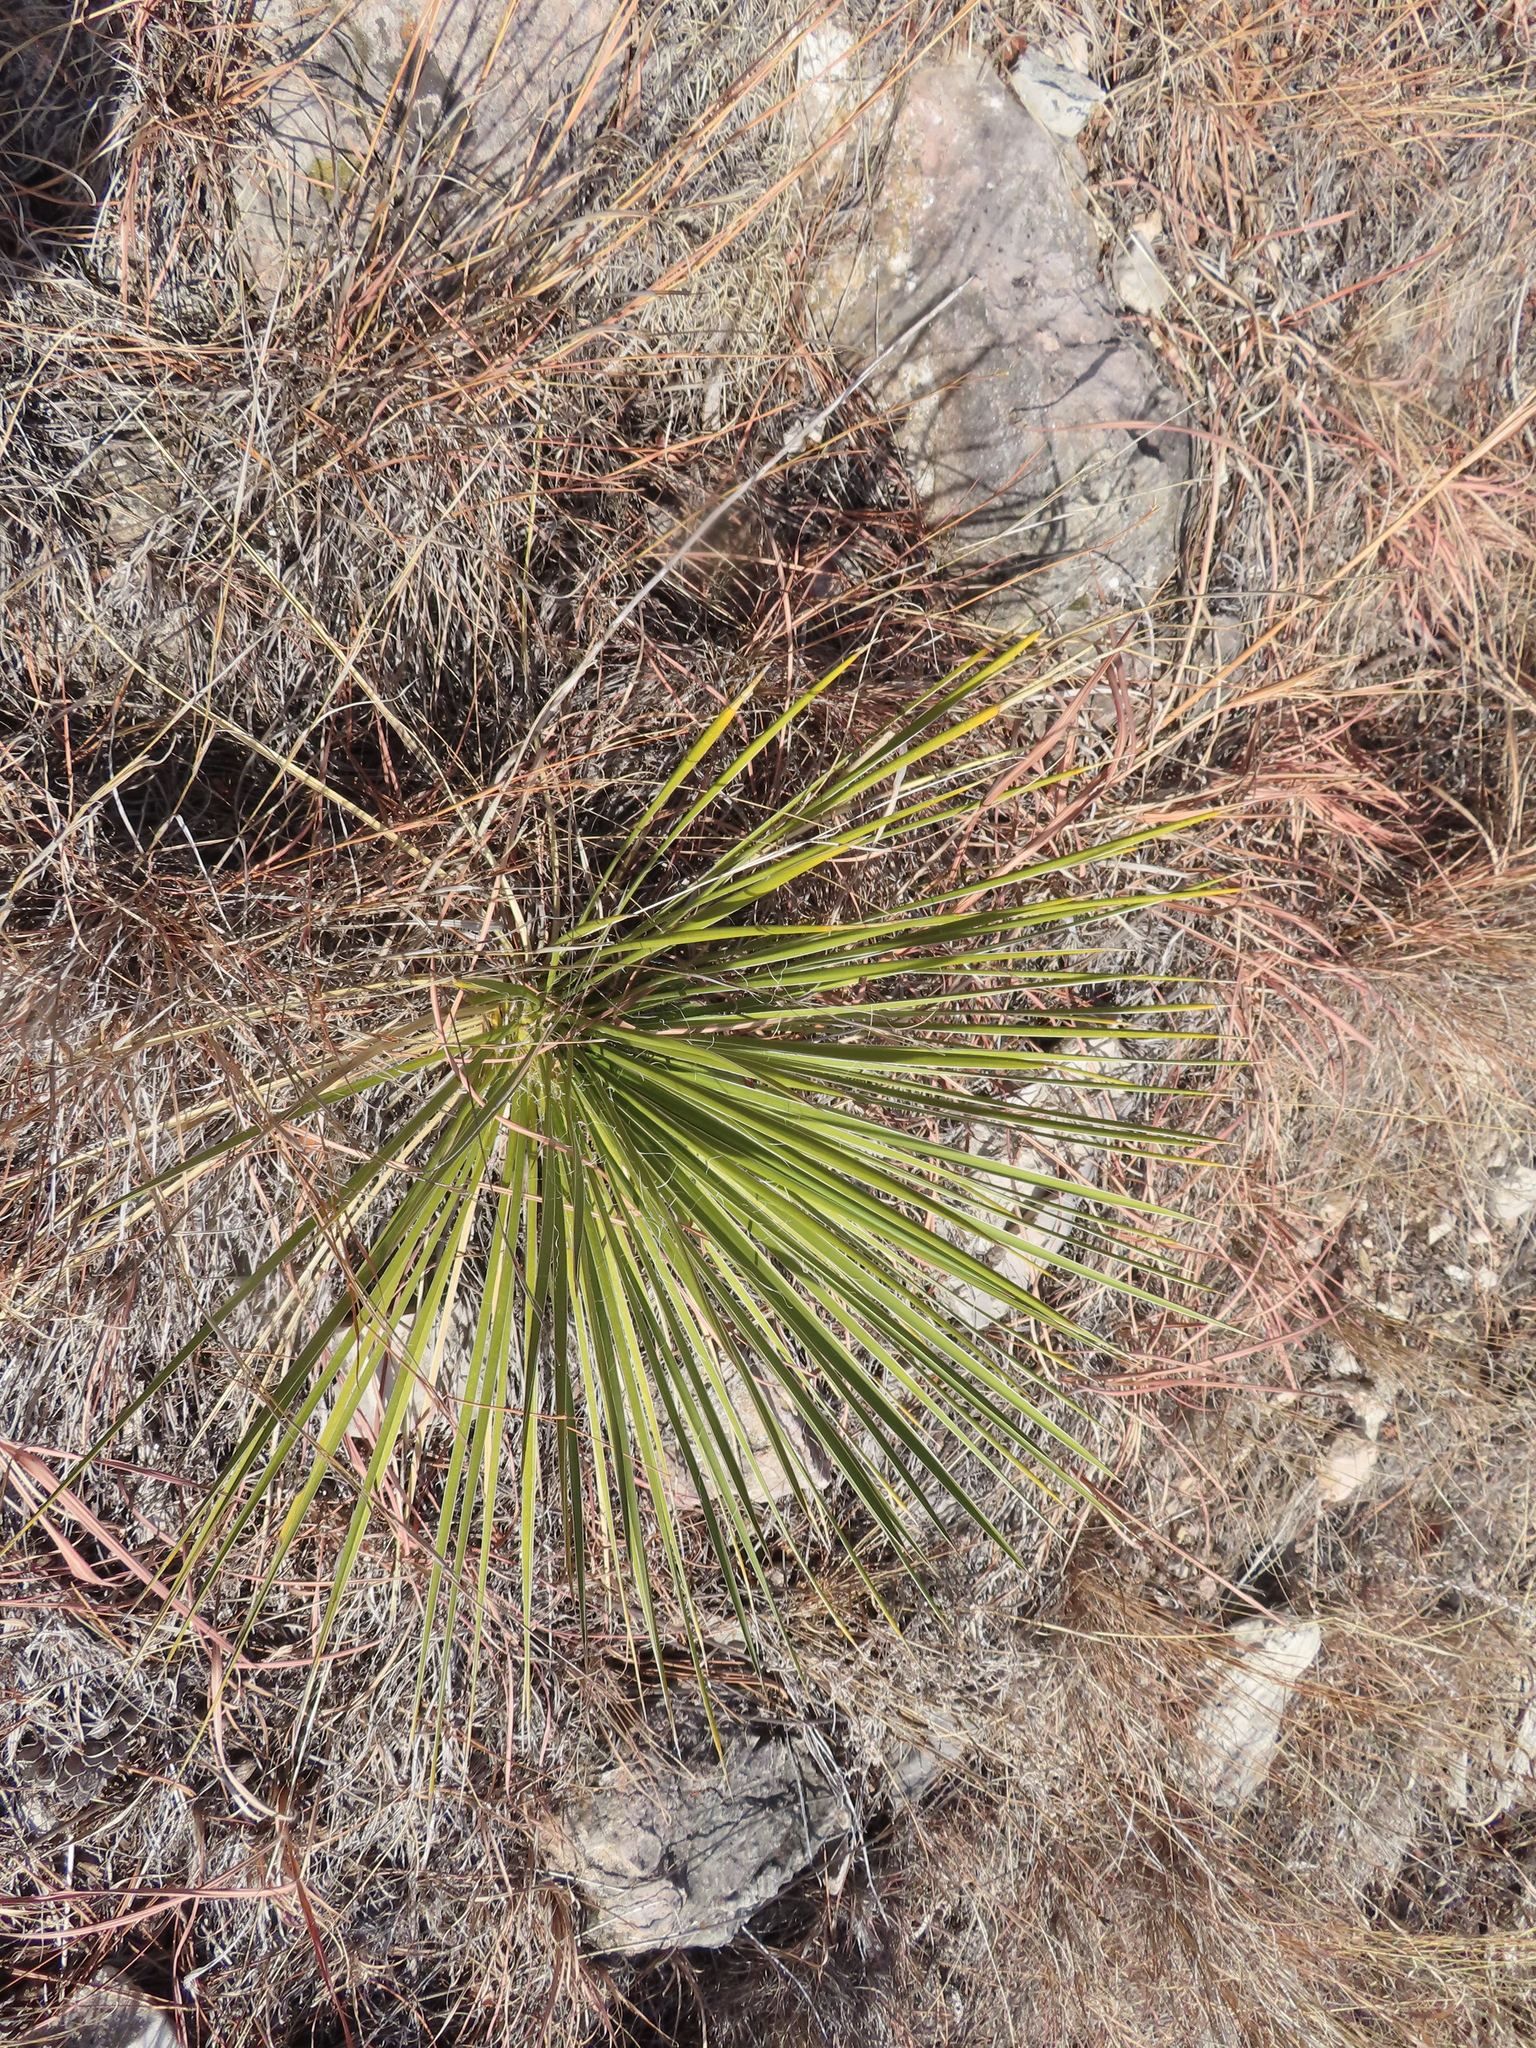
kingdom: Plantae
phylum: Tracheophyta
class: Liliopsida
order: Asparagales
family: Asparagaceae
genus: Yucca
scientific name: Yucca glauca
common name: Great plains yucca
